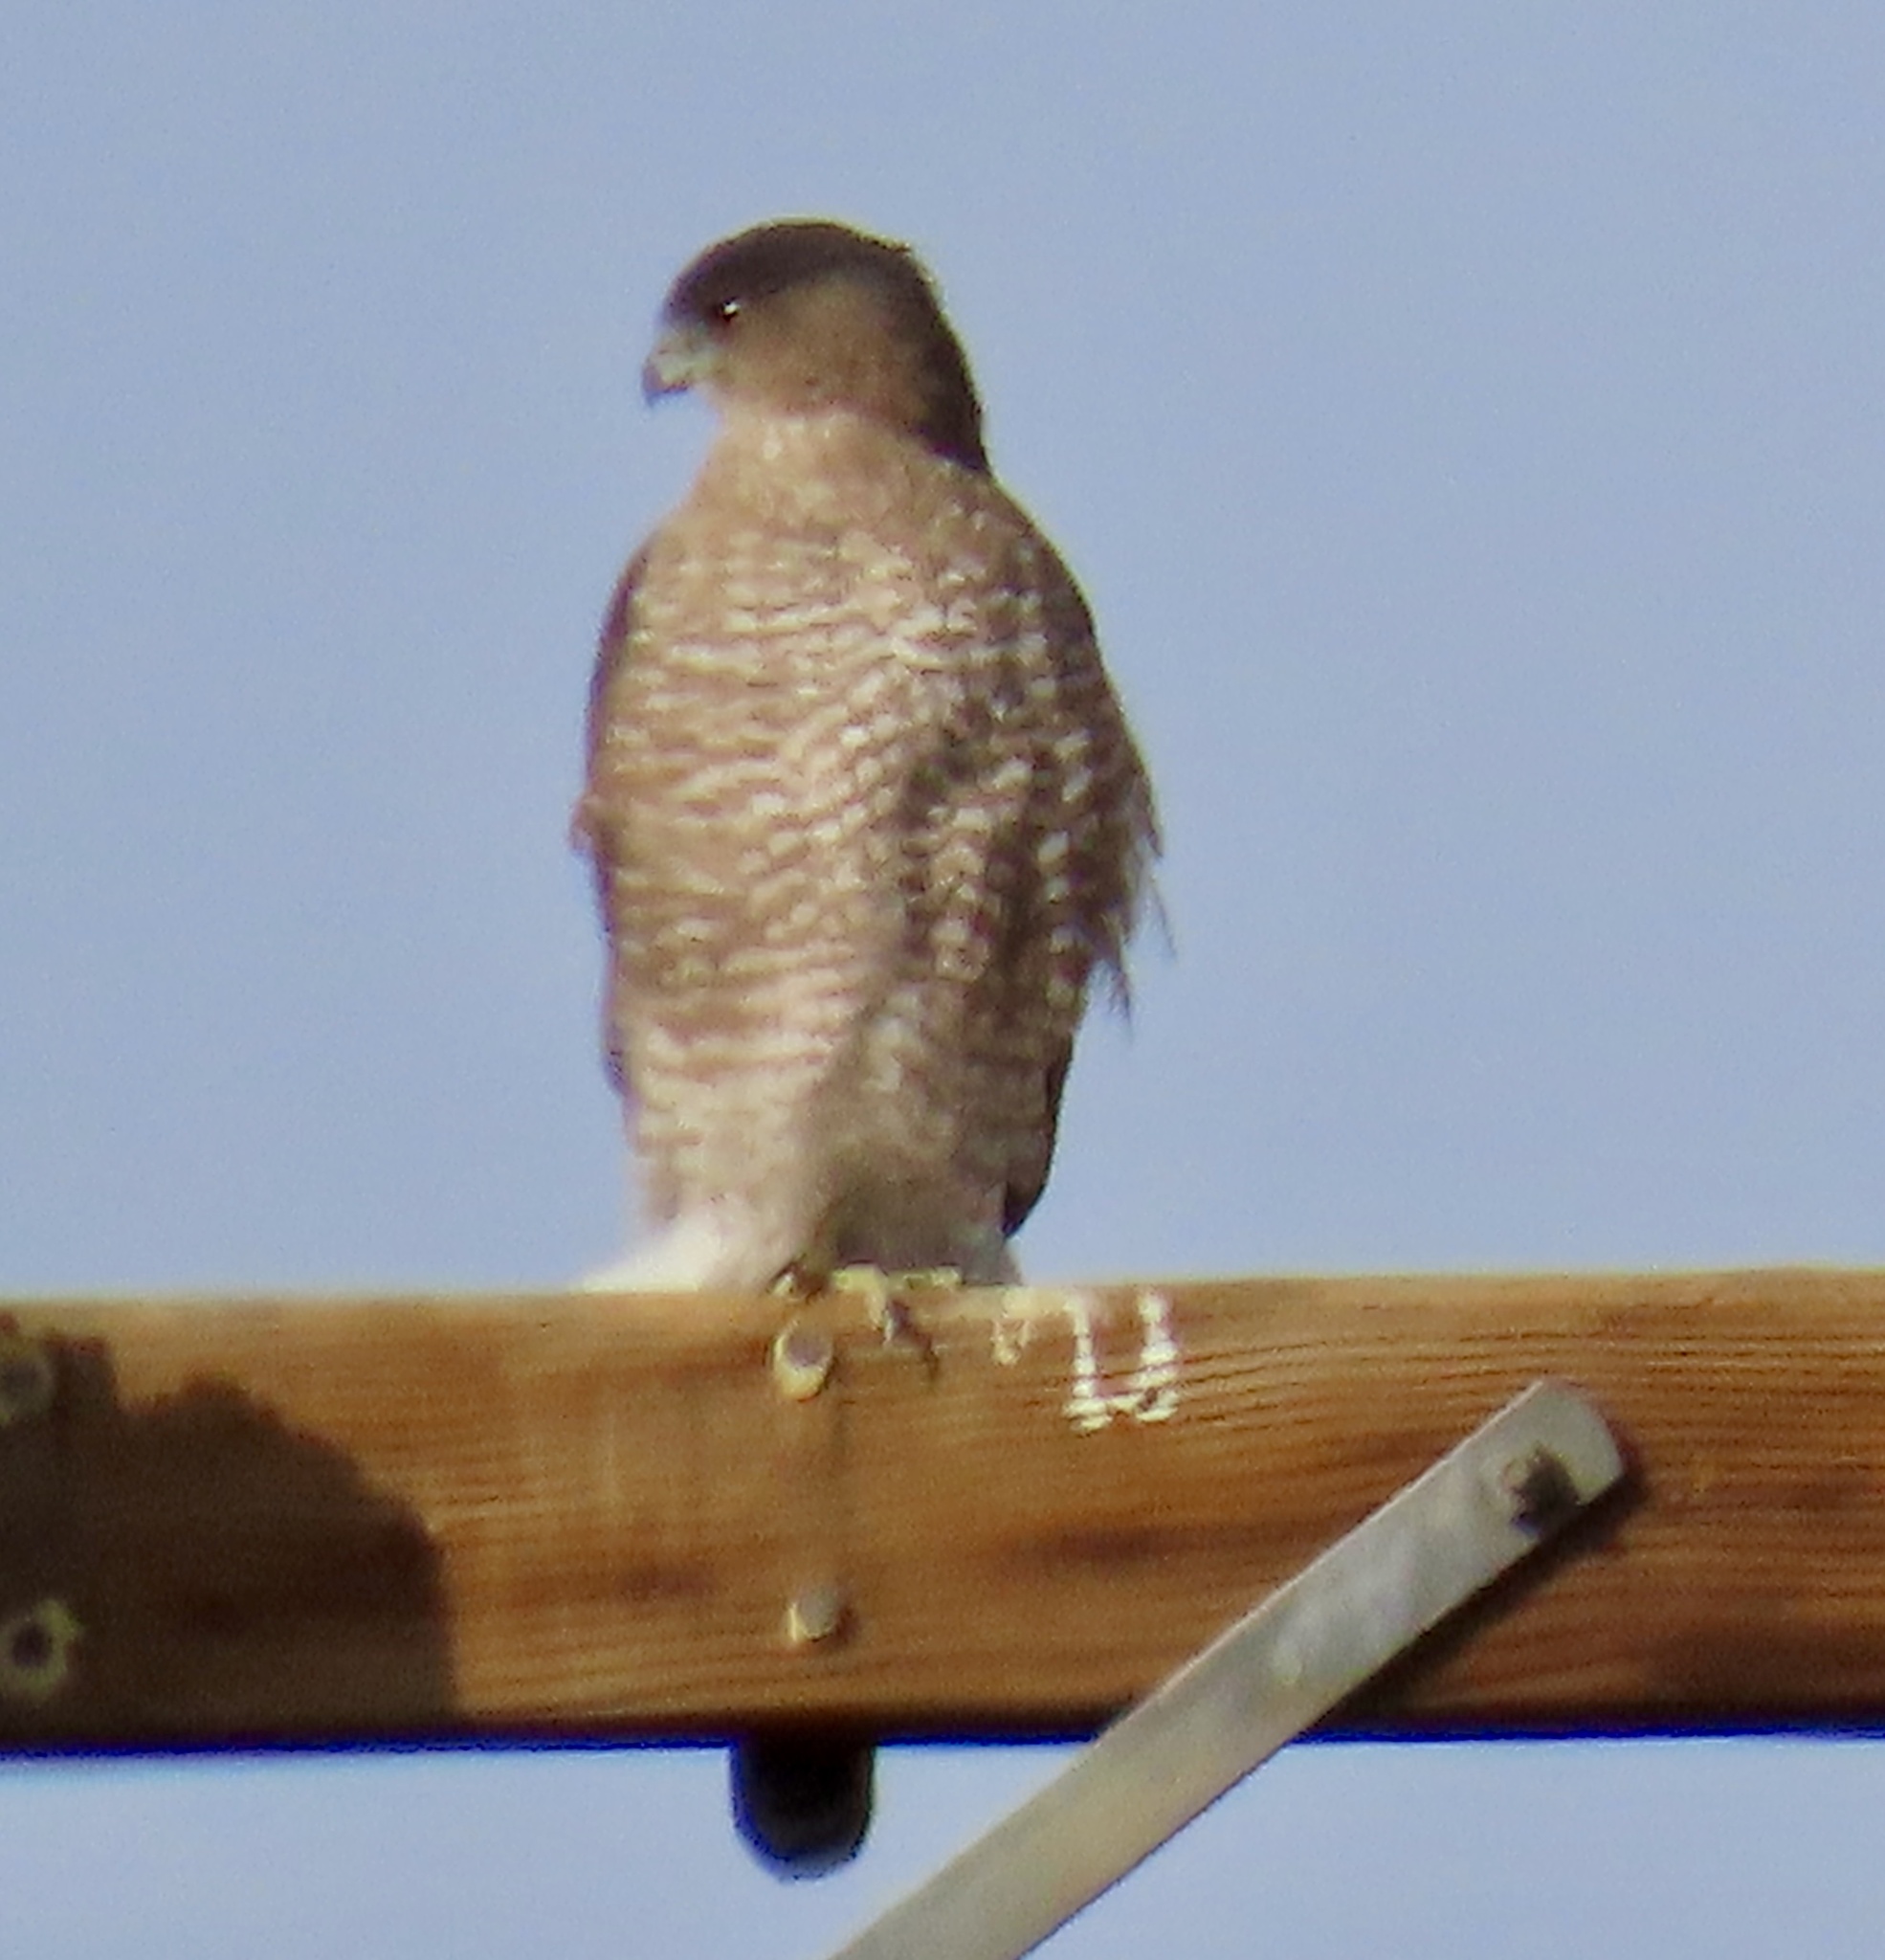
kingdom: Animalia
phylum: Chordata
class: Aves
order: Accipitriformes
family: Accipitridae
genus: Accipiter
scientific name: Accipiter cooperii
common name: Cooper's hawk
